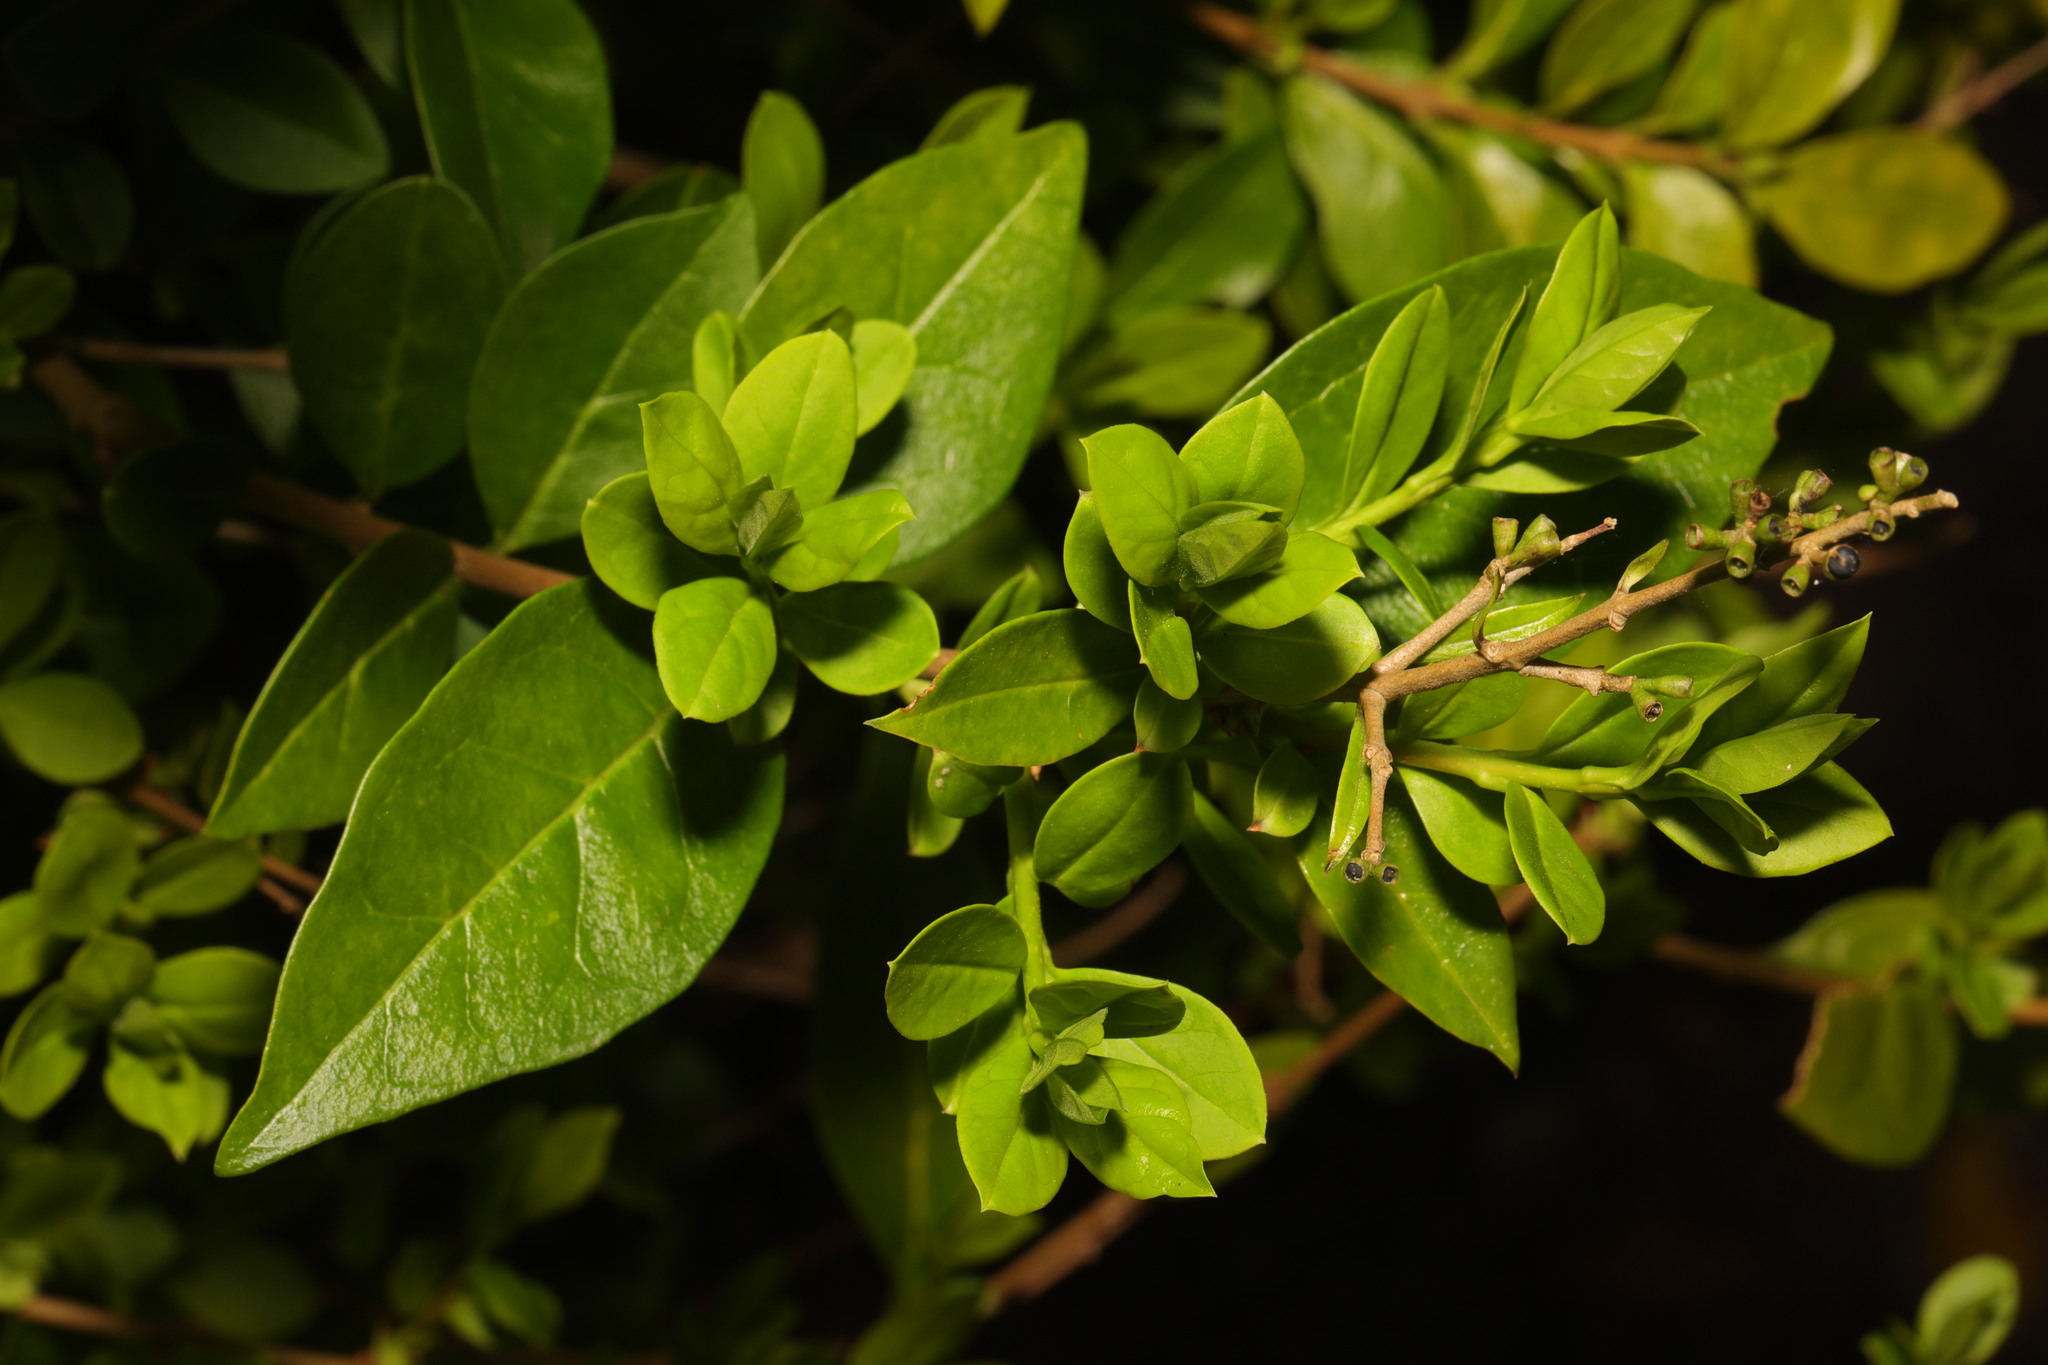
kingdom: Plantae
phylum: Tracheophyta
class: Magnoliopsida
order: Lamiales
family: Oleaceae
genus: Ligustrum
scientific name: Ligustrum ovalifolium
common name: California privet
